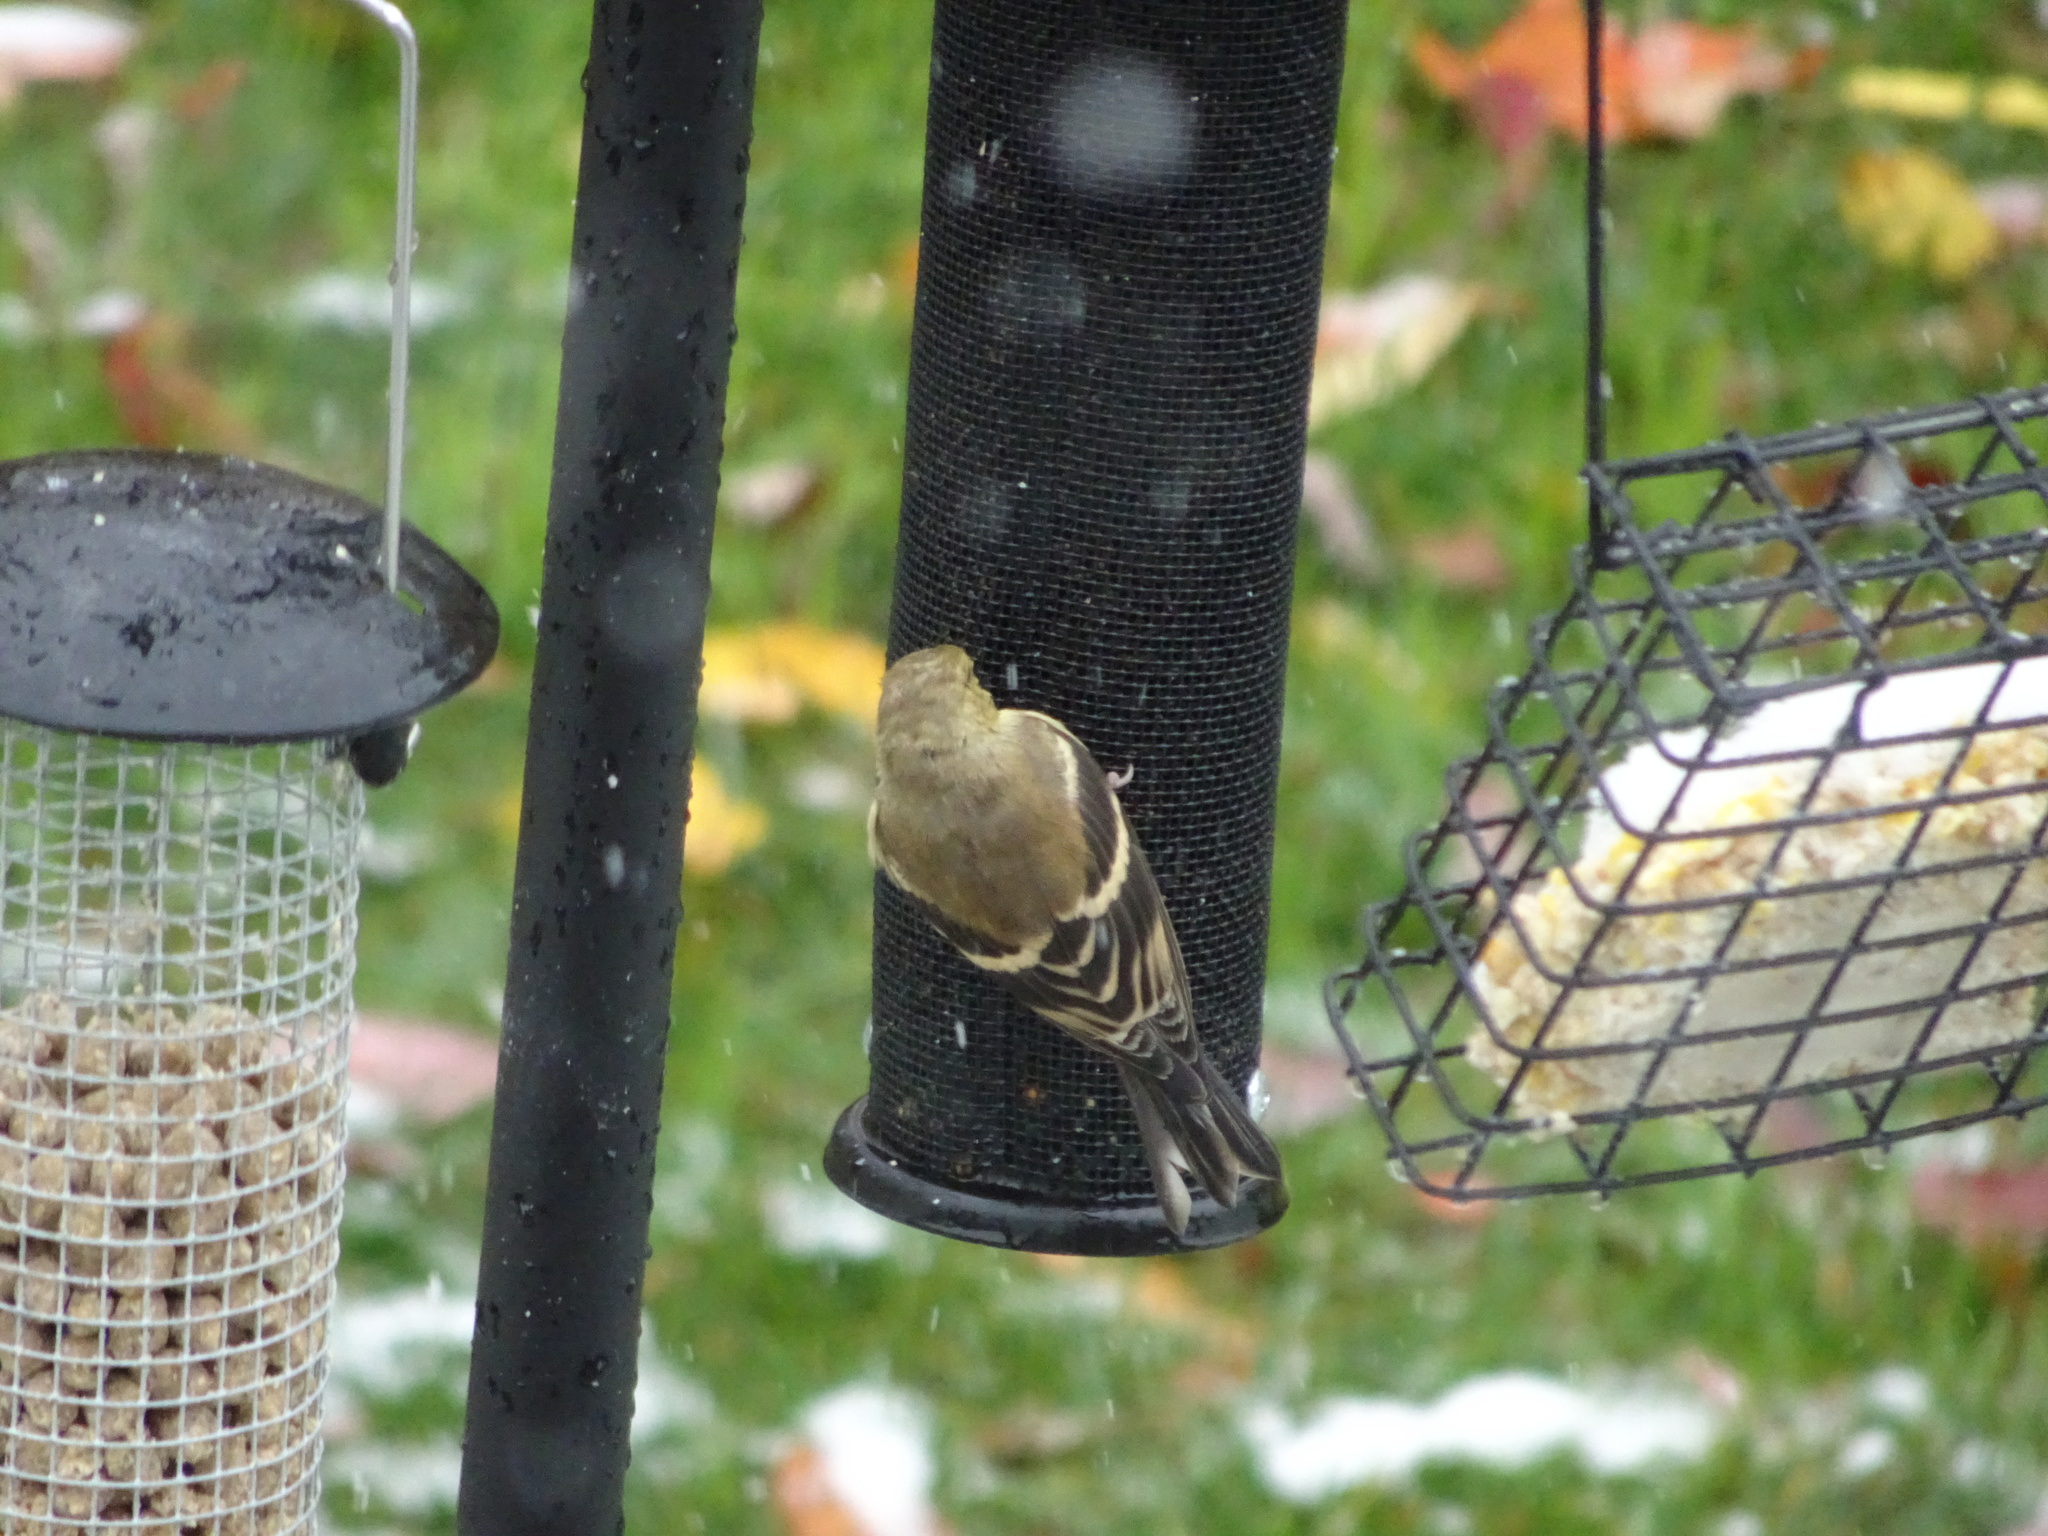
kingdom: Animalia
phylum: Chordata
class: Aves
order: Passeriformes
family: Fringillidae
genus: Spinus
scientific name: Spinus tristis
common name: American goldfinch
